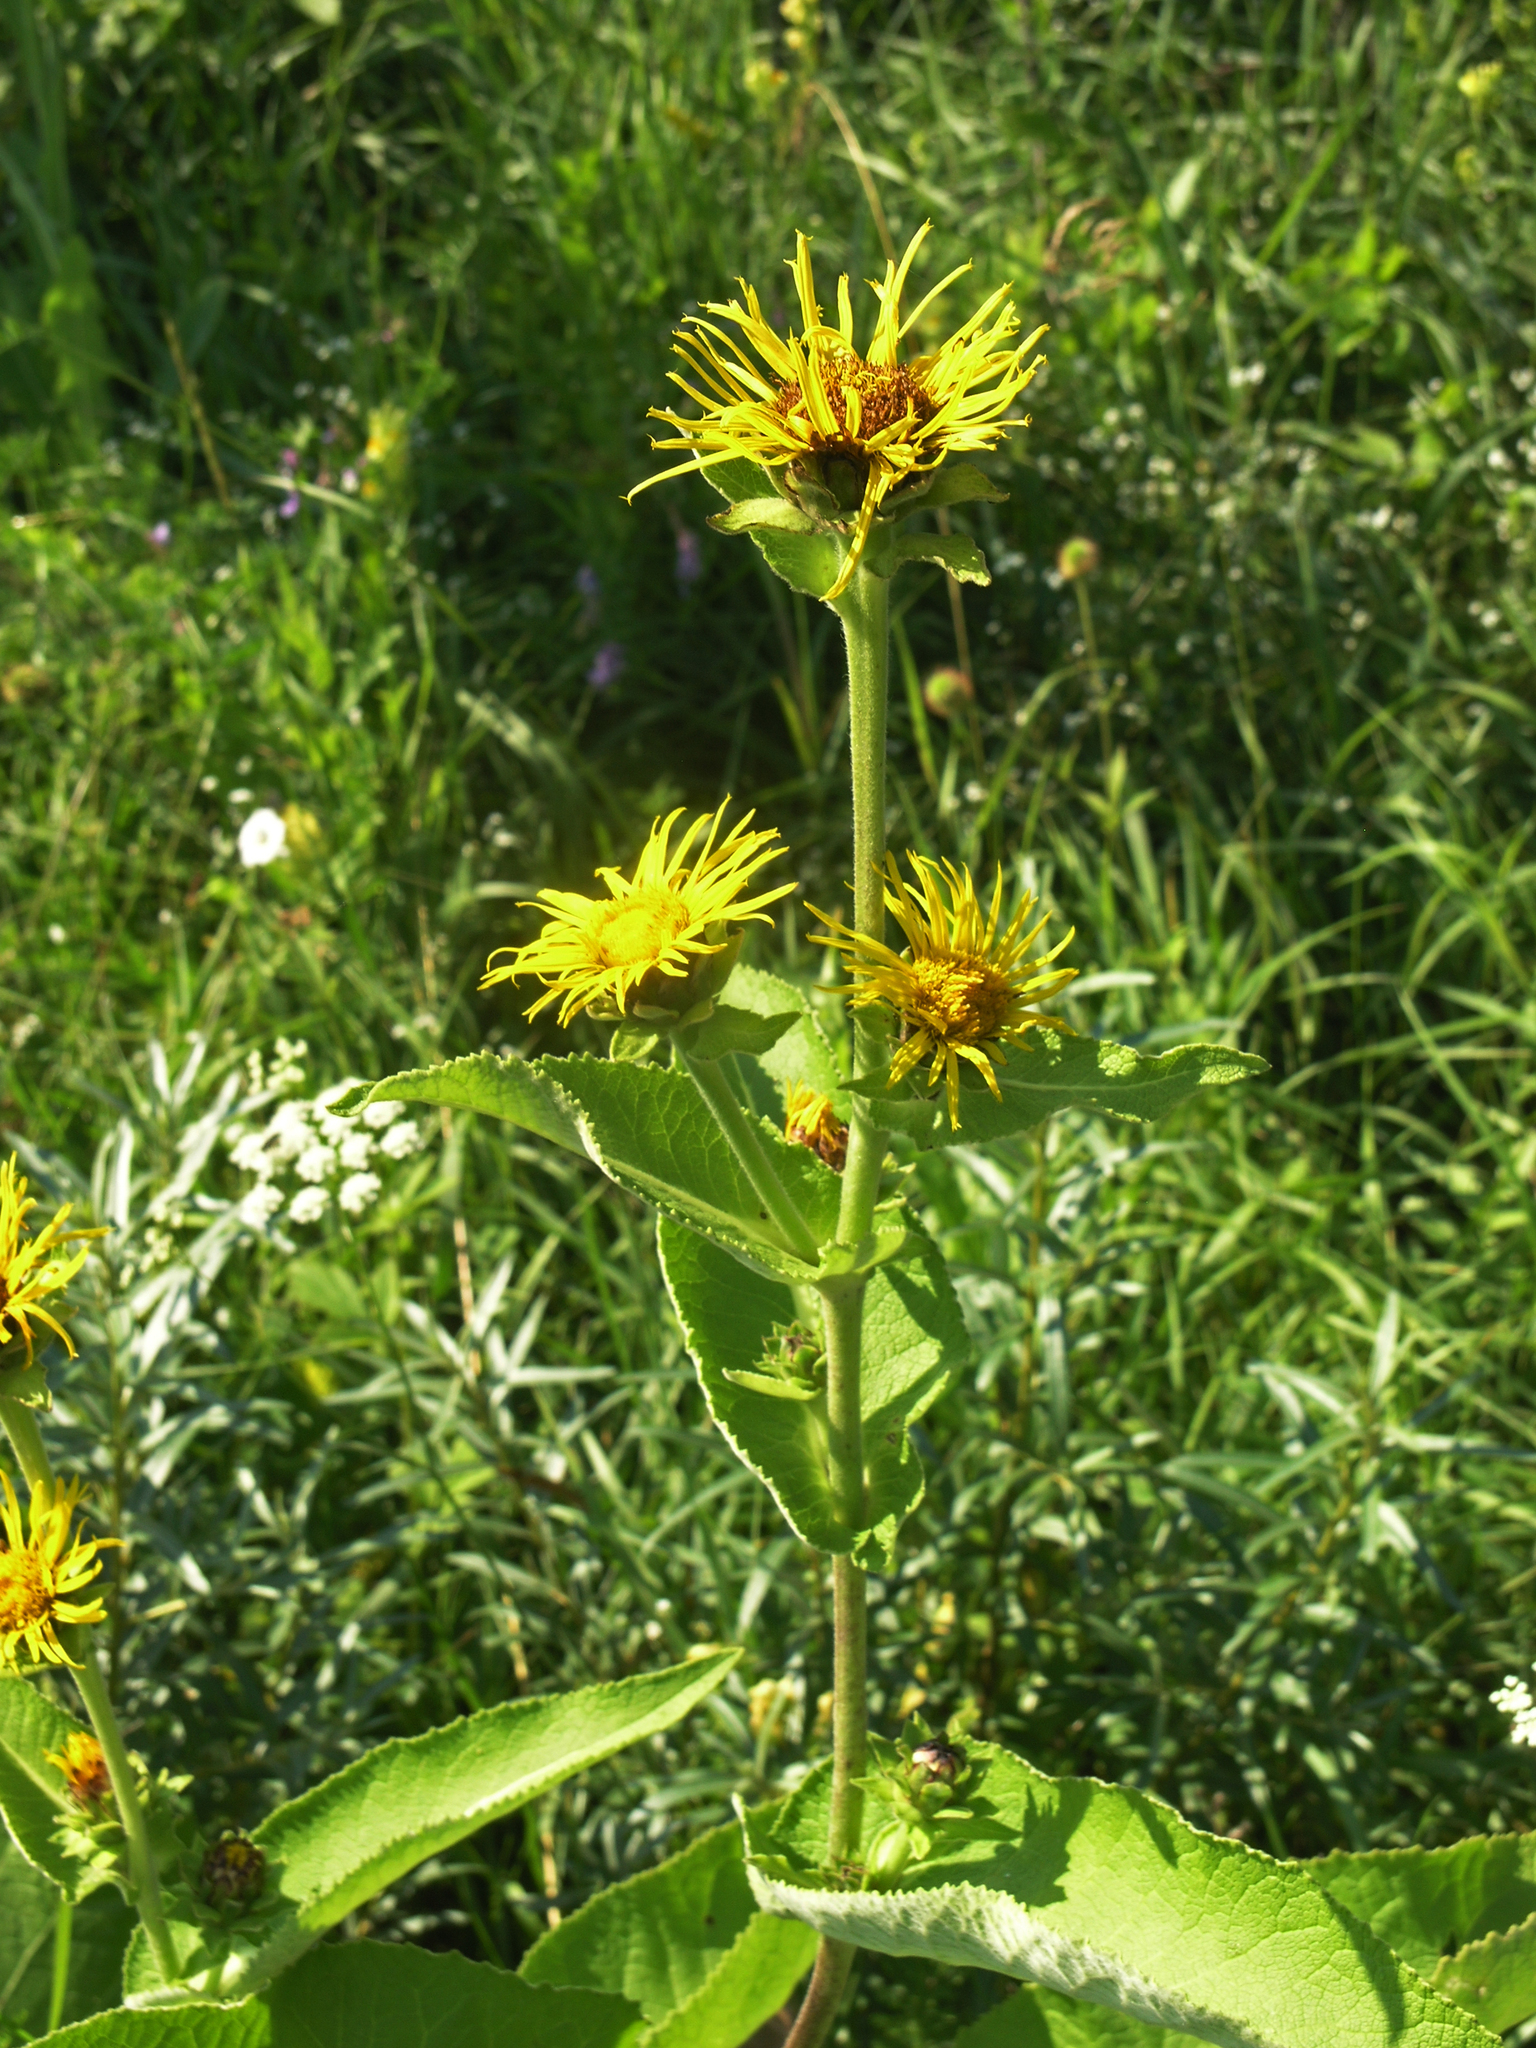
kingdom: Plantae
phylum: Tracheophyta
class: Magnoliopsida
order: Asterales
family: Asteraceae
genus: Inula
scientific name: Inula helenium
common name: Elecampane
